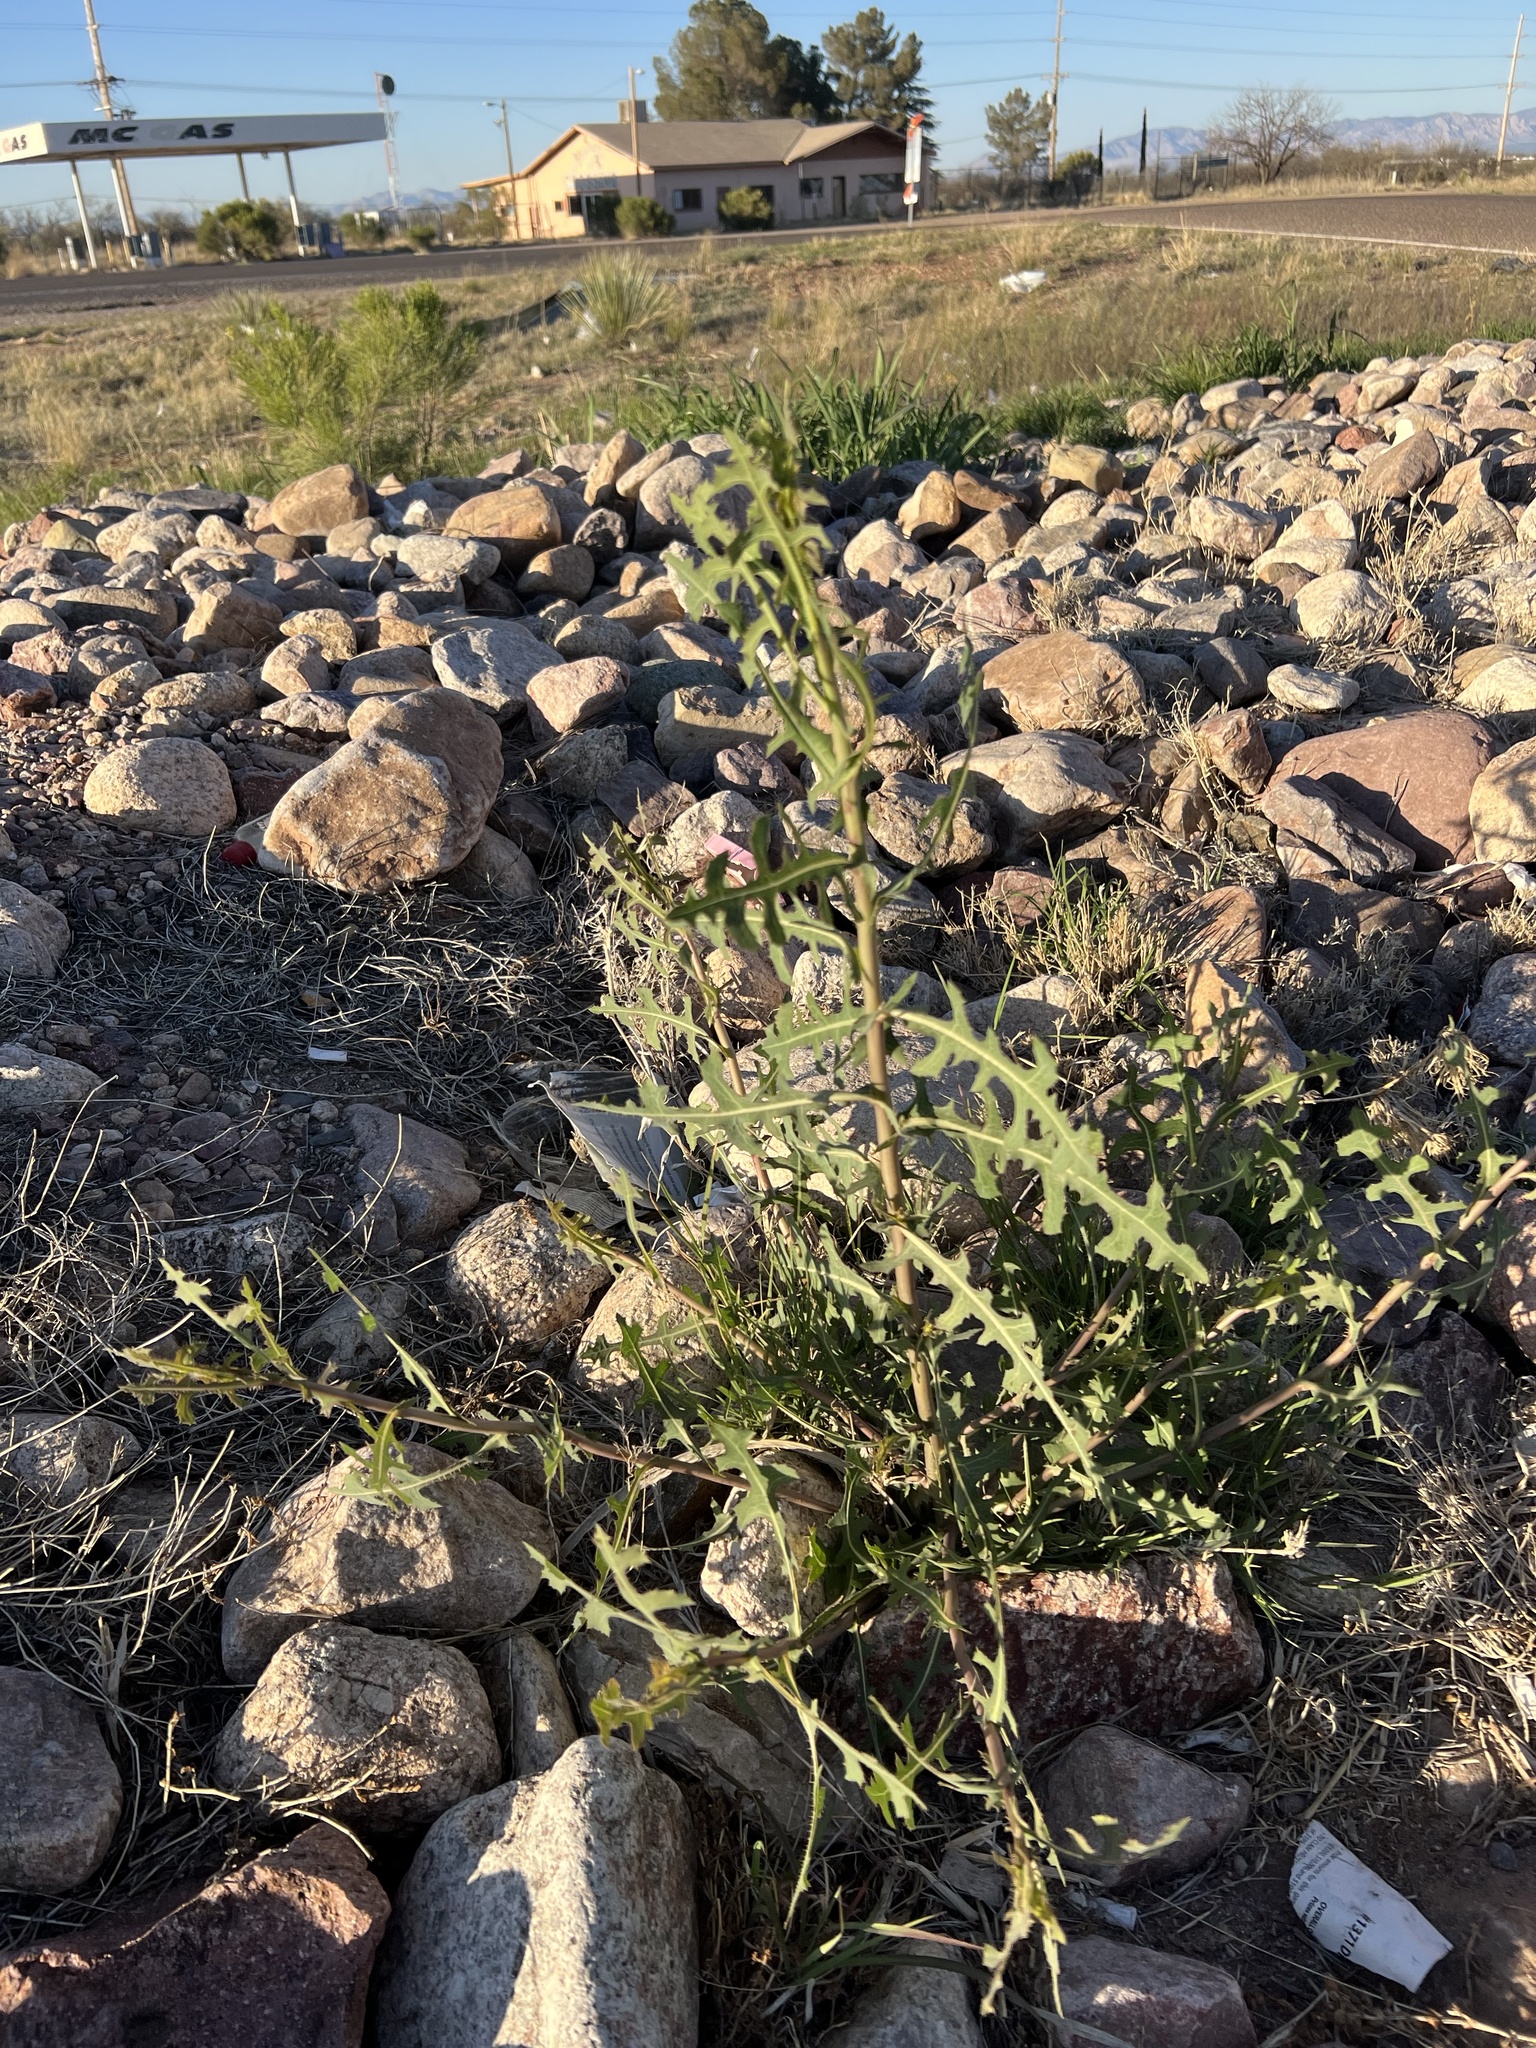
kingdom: Plantae
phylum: Tracheophyta
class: Magnoliopsida
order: Asterales
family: Asteraceae
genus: Lactuca
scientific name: Lactuca serriola
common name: Prickly lettuce
